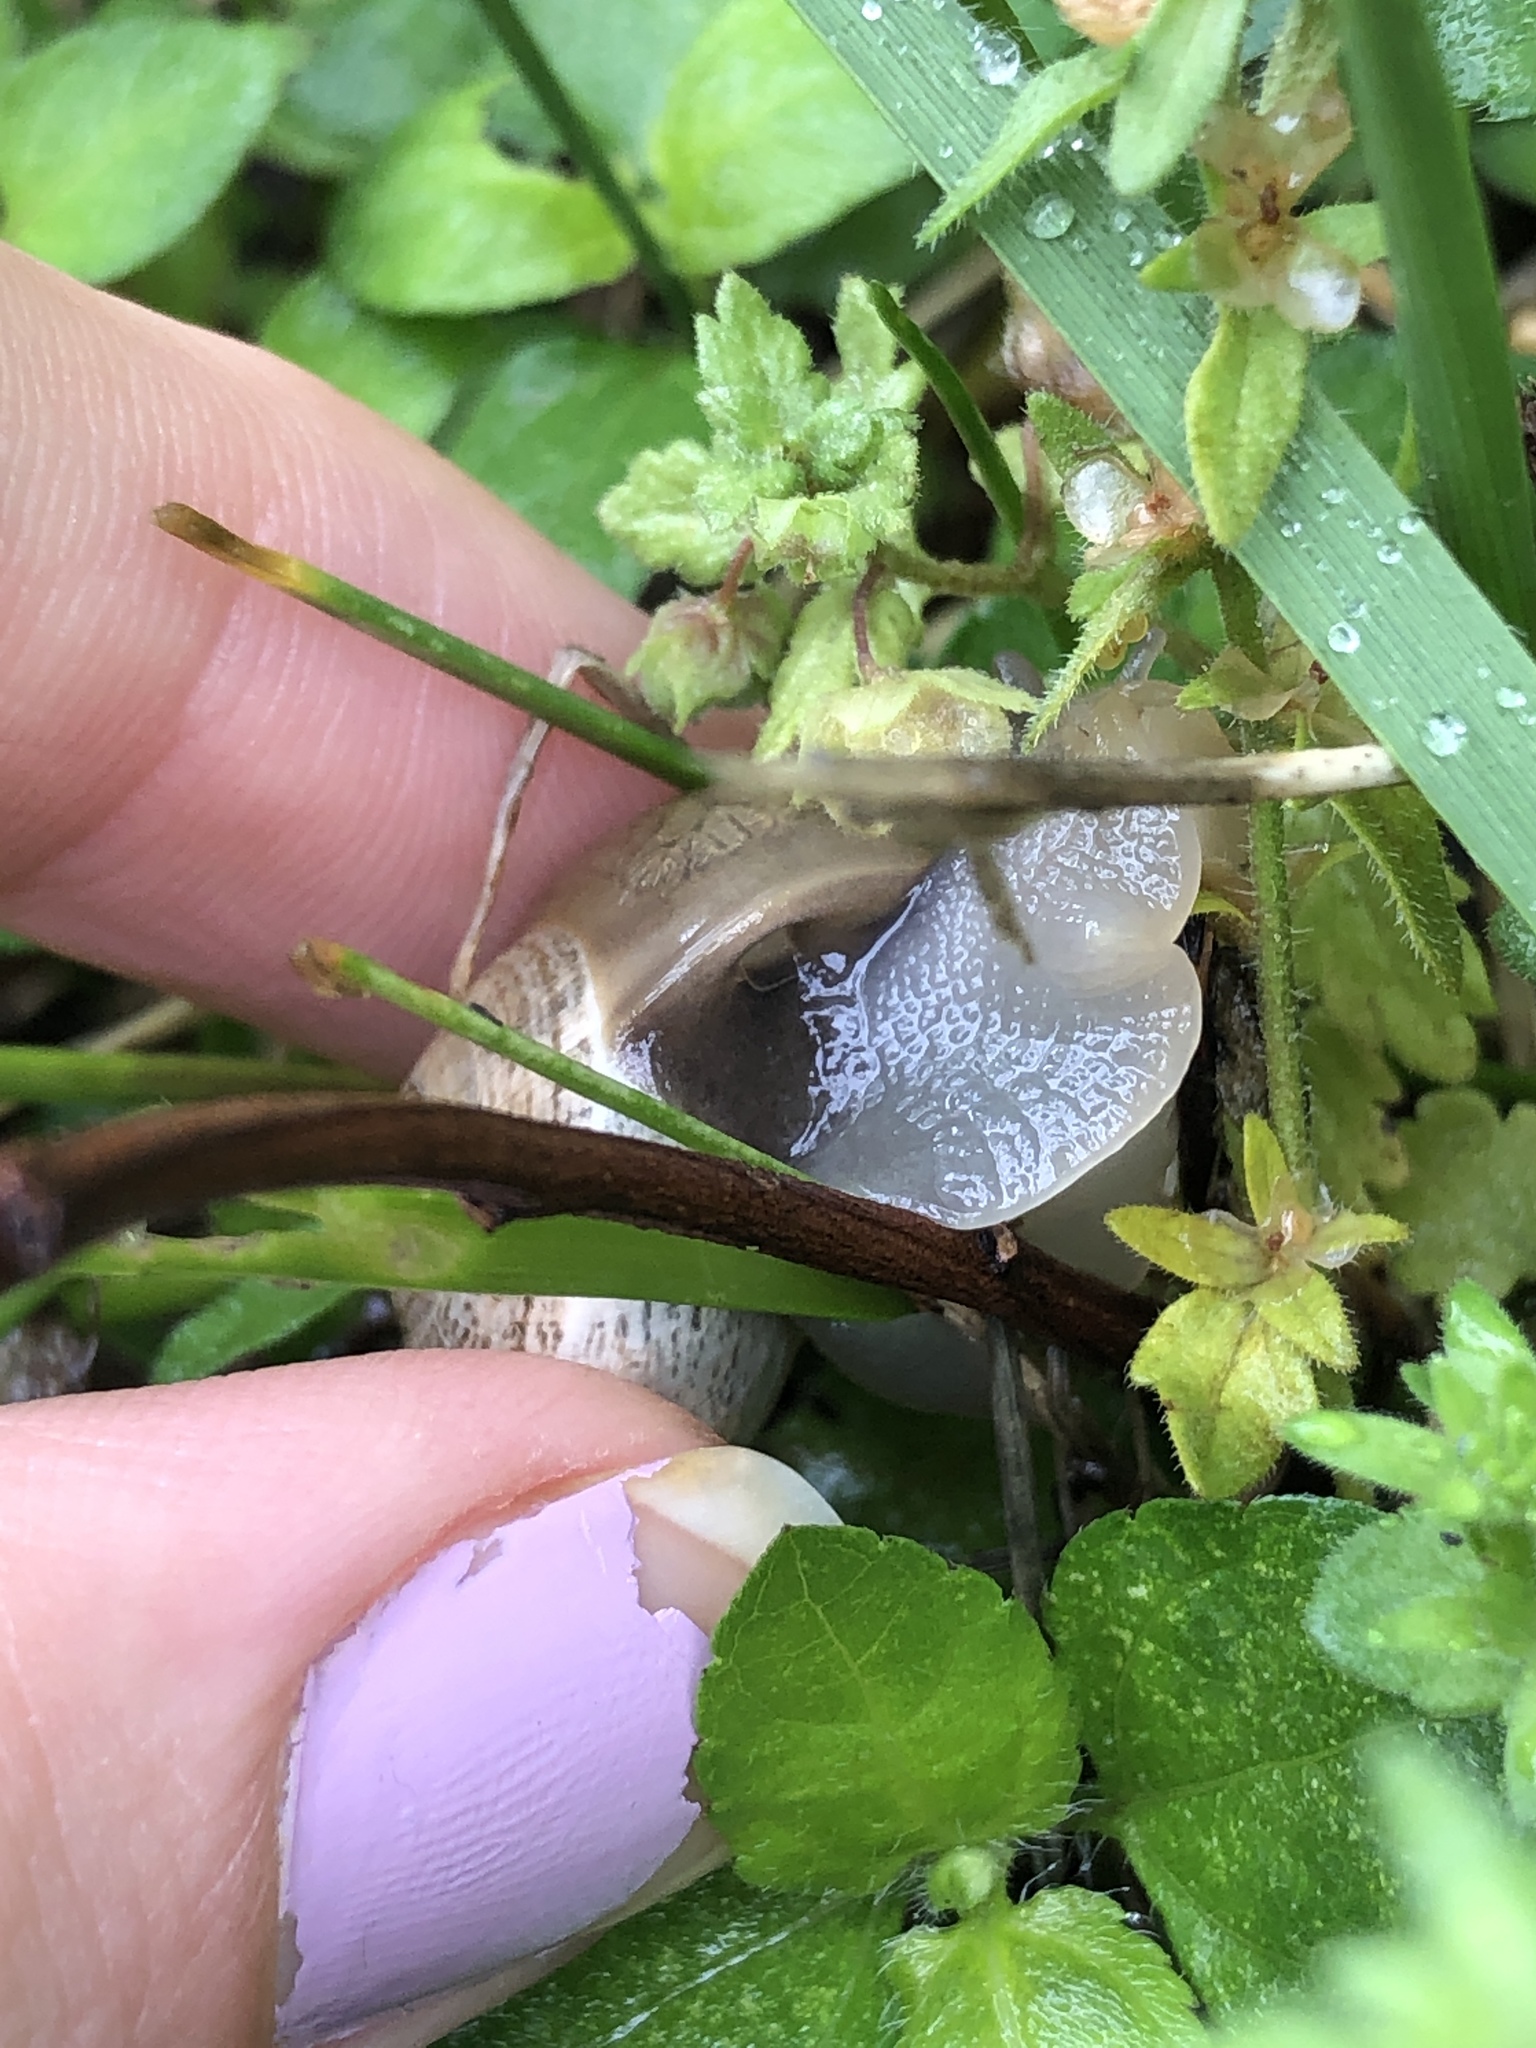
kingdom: Animalia
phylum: Mollusca
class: Gastropoda
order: Stylommatophora
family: Helicidae
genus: Otala
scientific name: Otala lactea
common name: Milk snail
